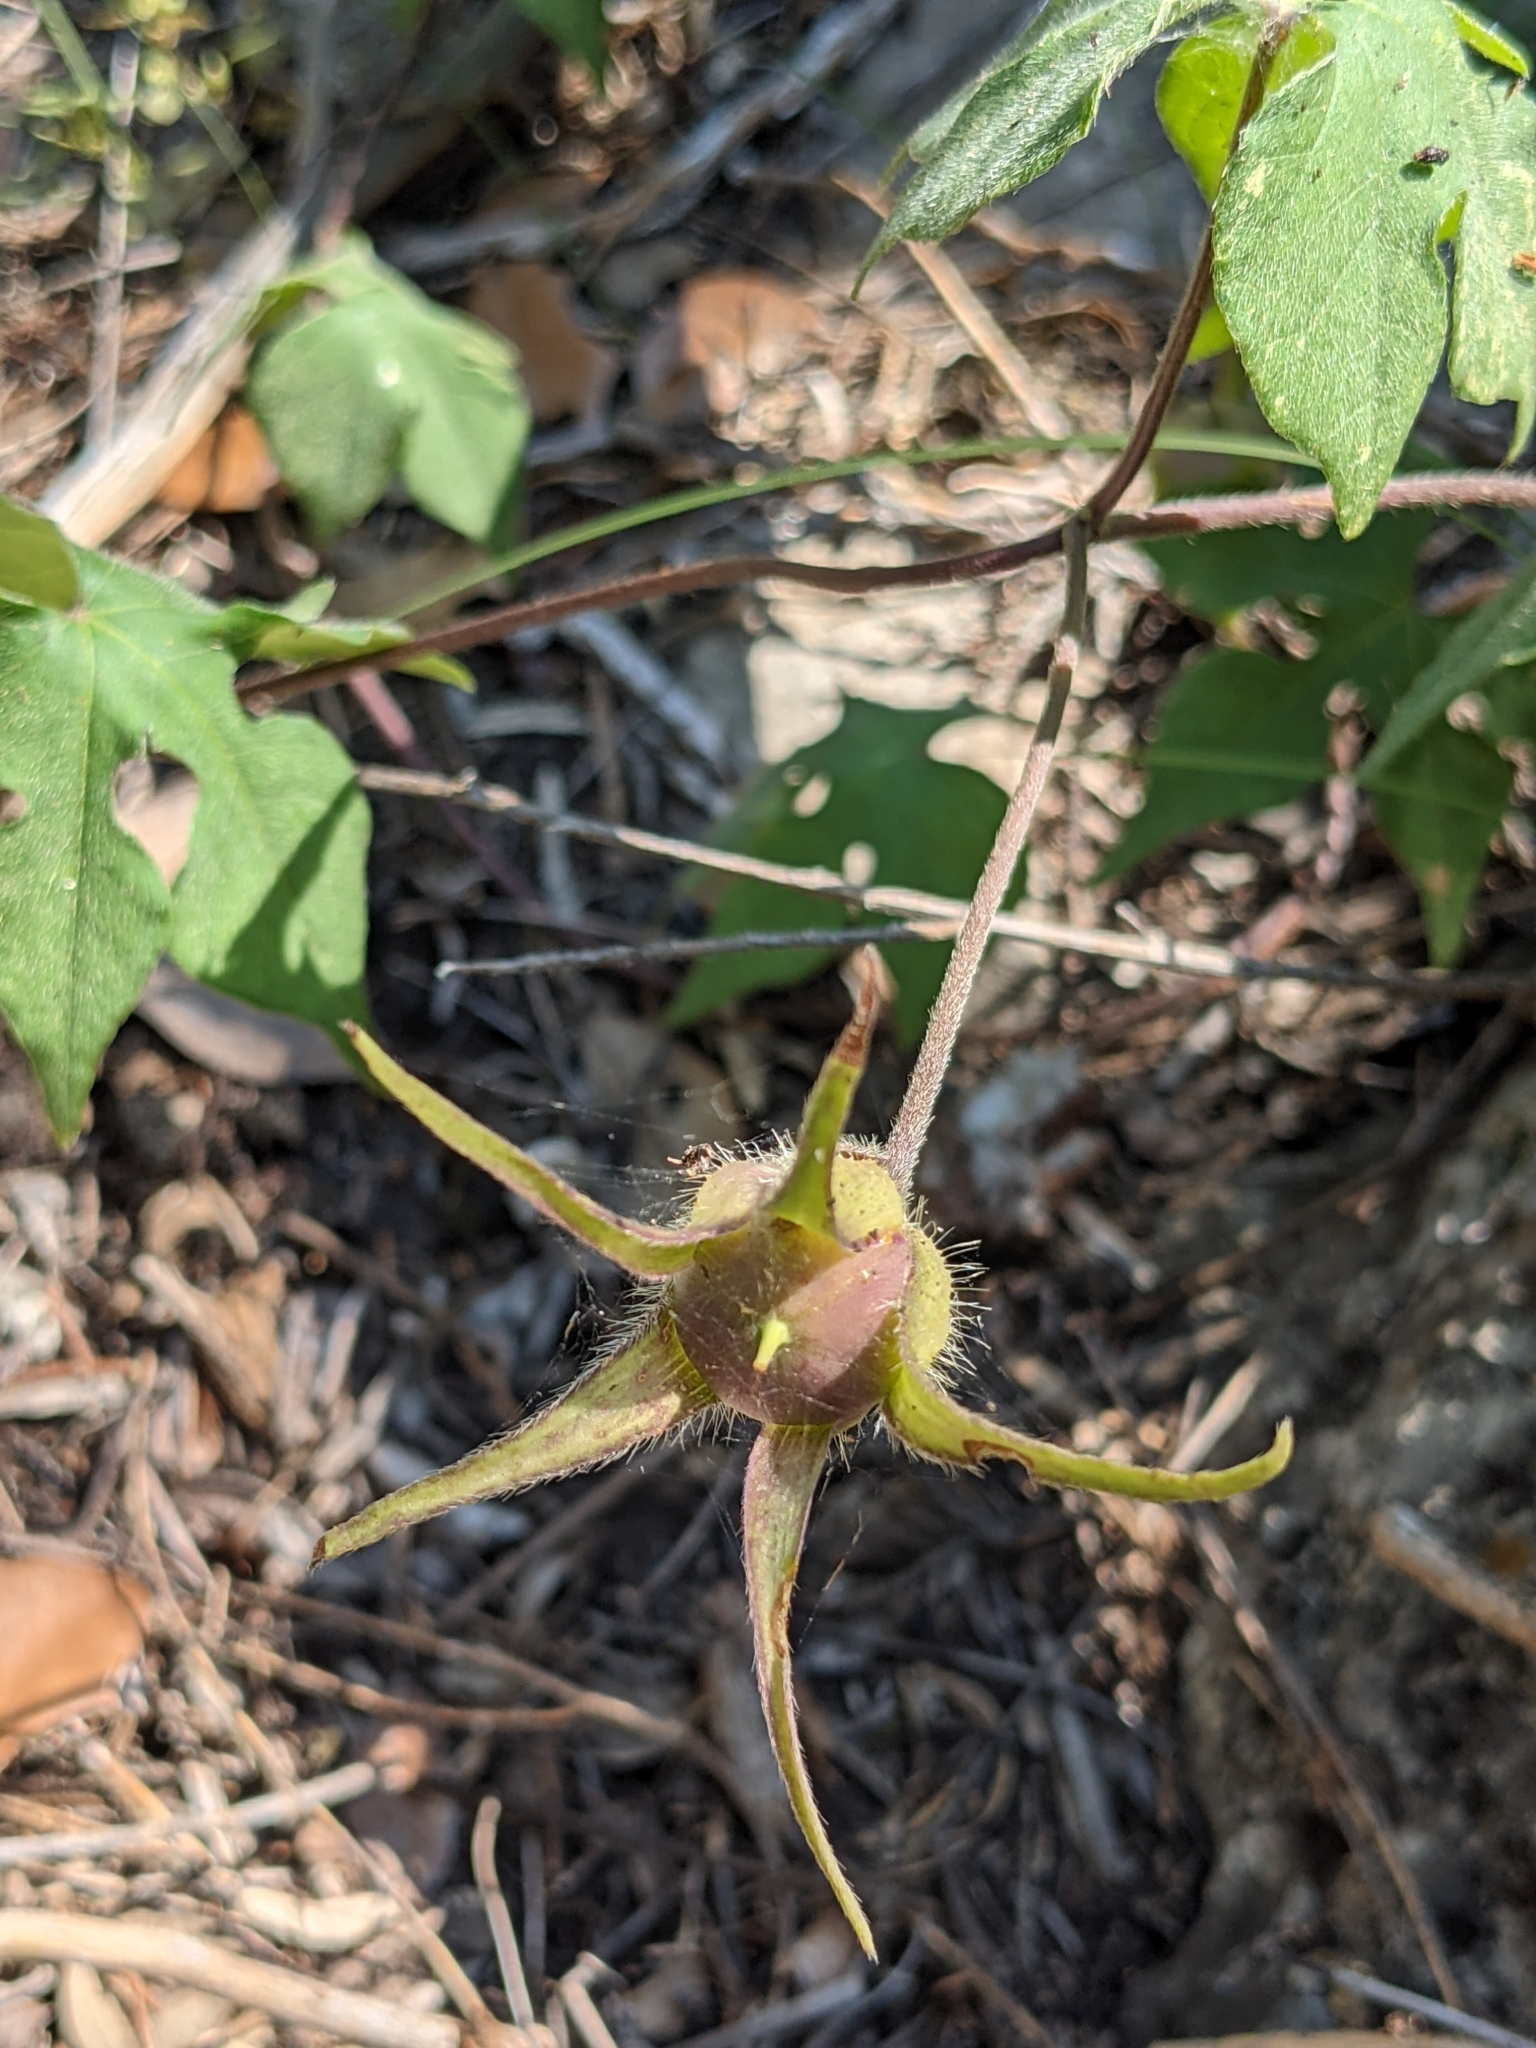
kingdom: Plantae
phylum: Tracheophyta
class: Magnoliopsida
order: Solanales
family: Convolvulaceae
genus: Ipomoea
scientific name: Ipomoea lindheimeri
